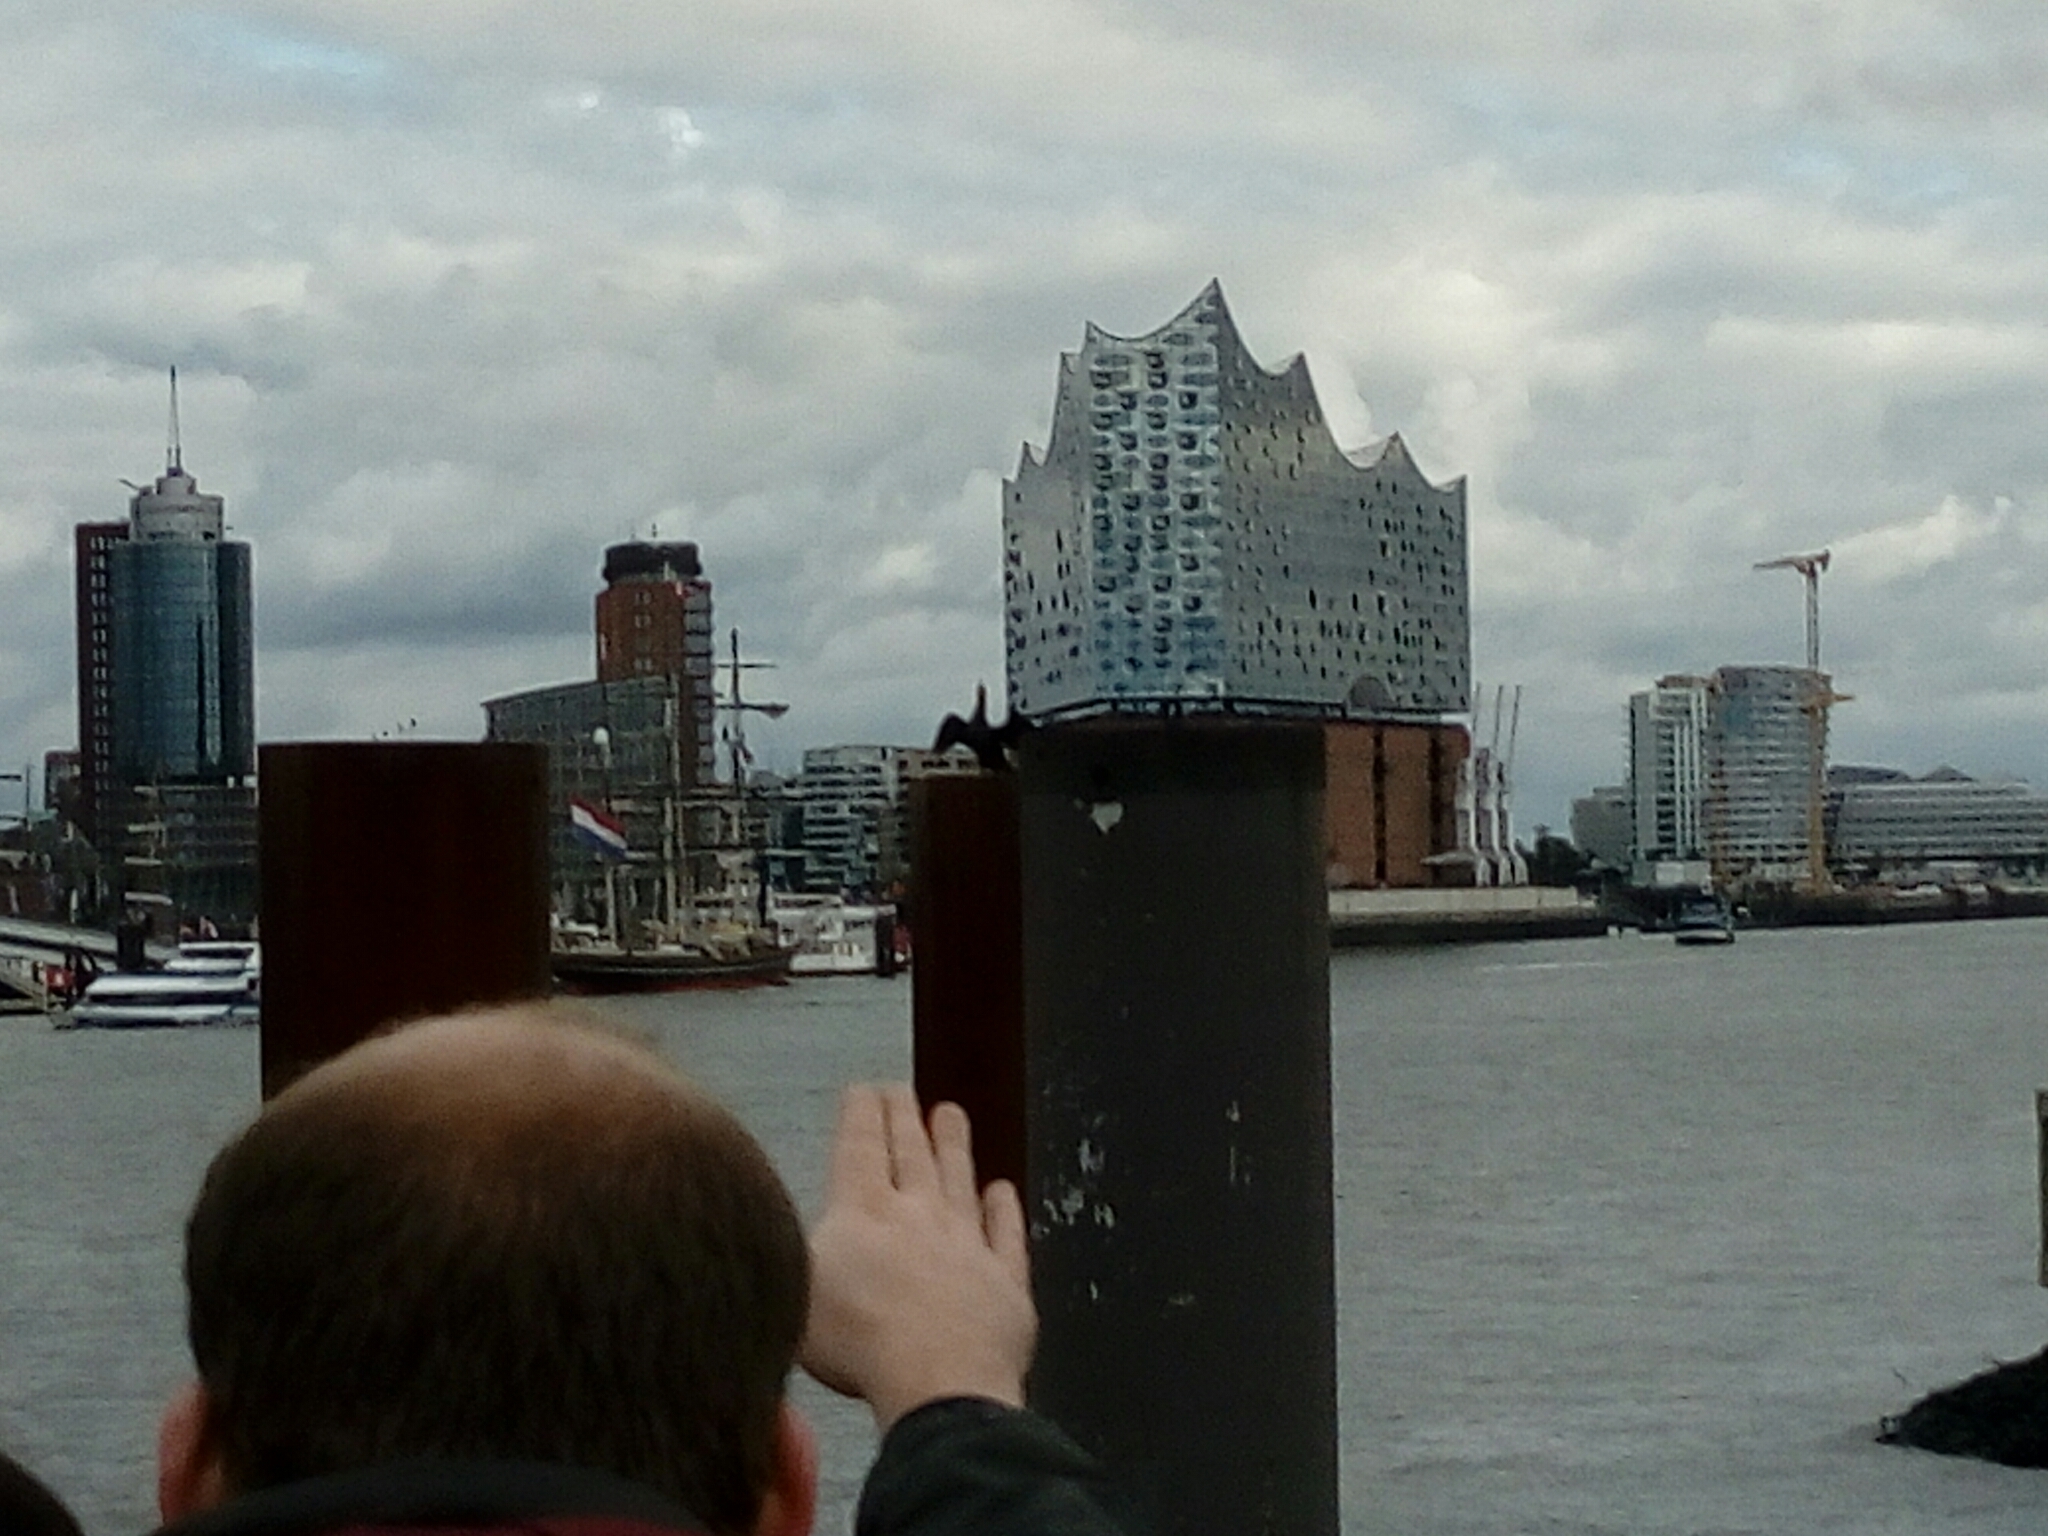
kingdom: Animalia
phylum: Chordata
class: Aves
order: Suliformes
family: Phalacrocoracidae
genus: Phalacrocorax
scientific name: Phalacrocorax carbo
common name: Great cormorant
